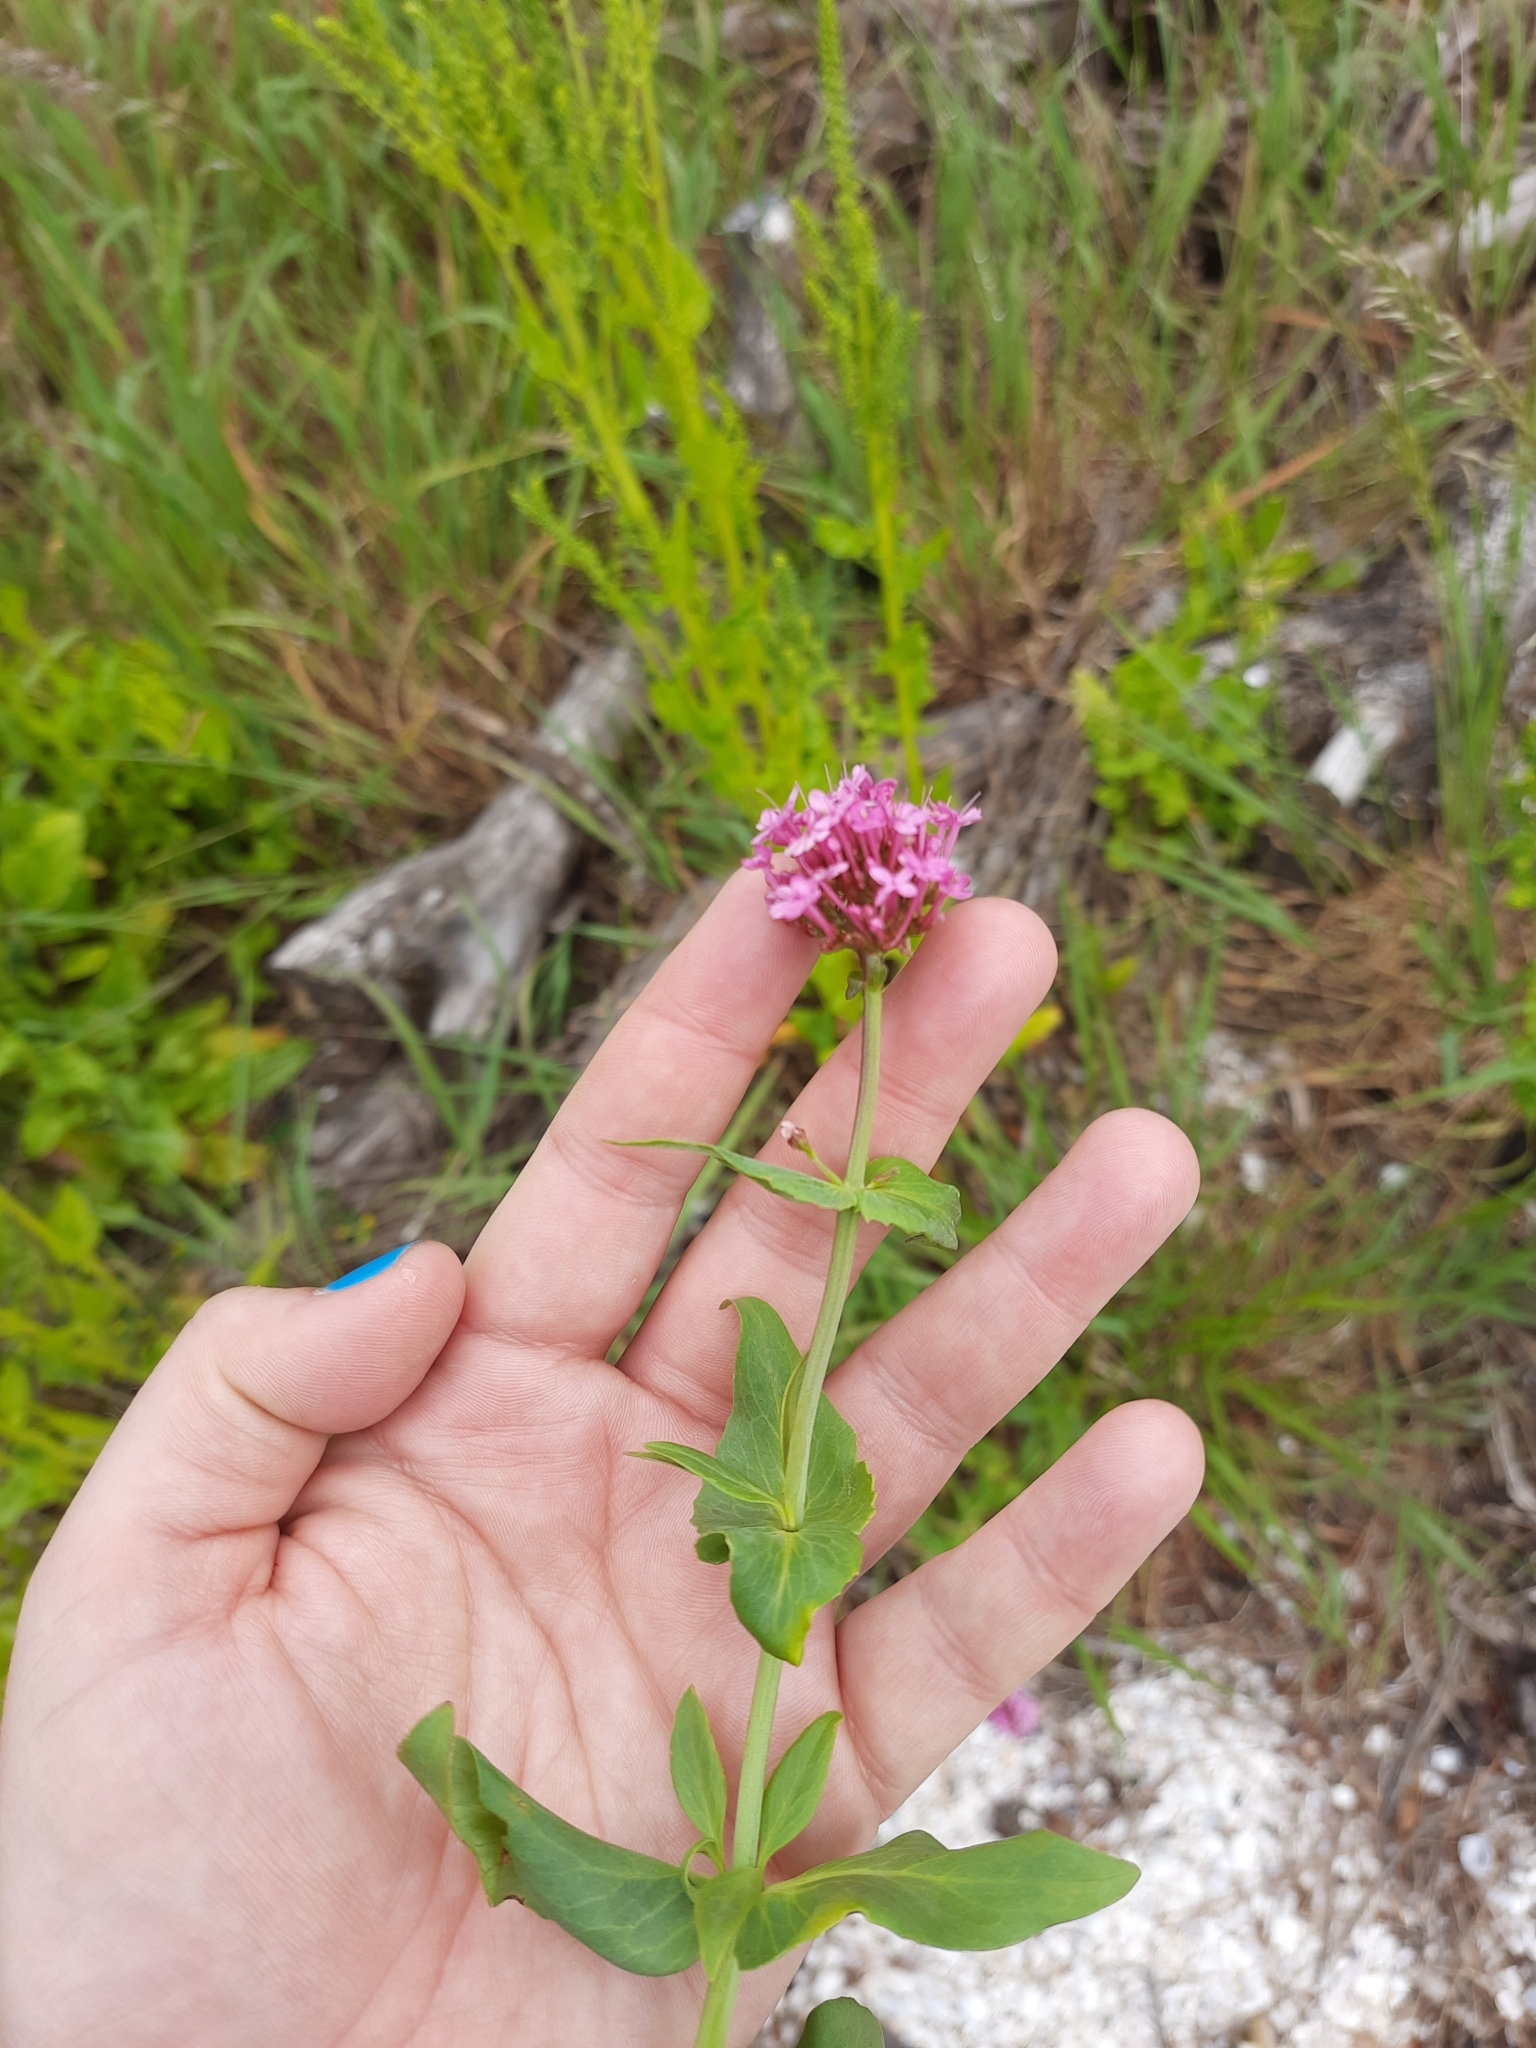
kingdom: Plantae
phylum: Tracheophyta
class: Magnoliopsida
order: Dipsacales
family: Caprifoliaceae
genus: Centranthus
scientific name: Centranthus ruber
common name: Red valerian
